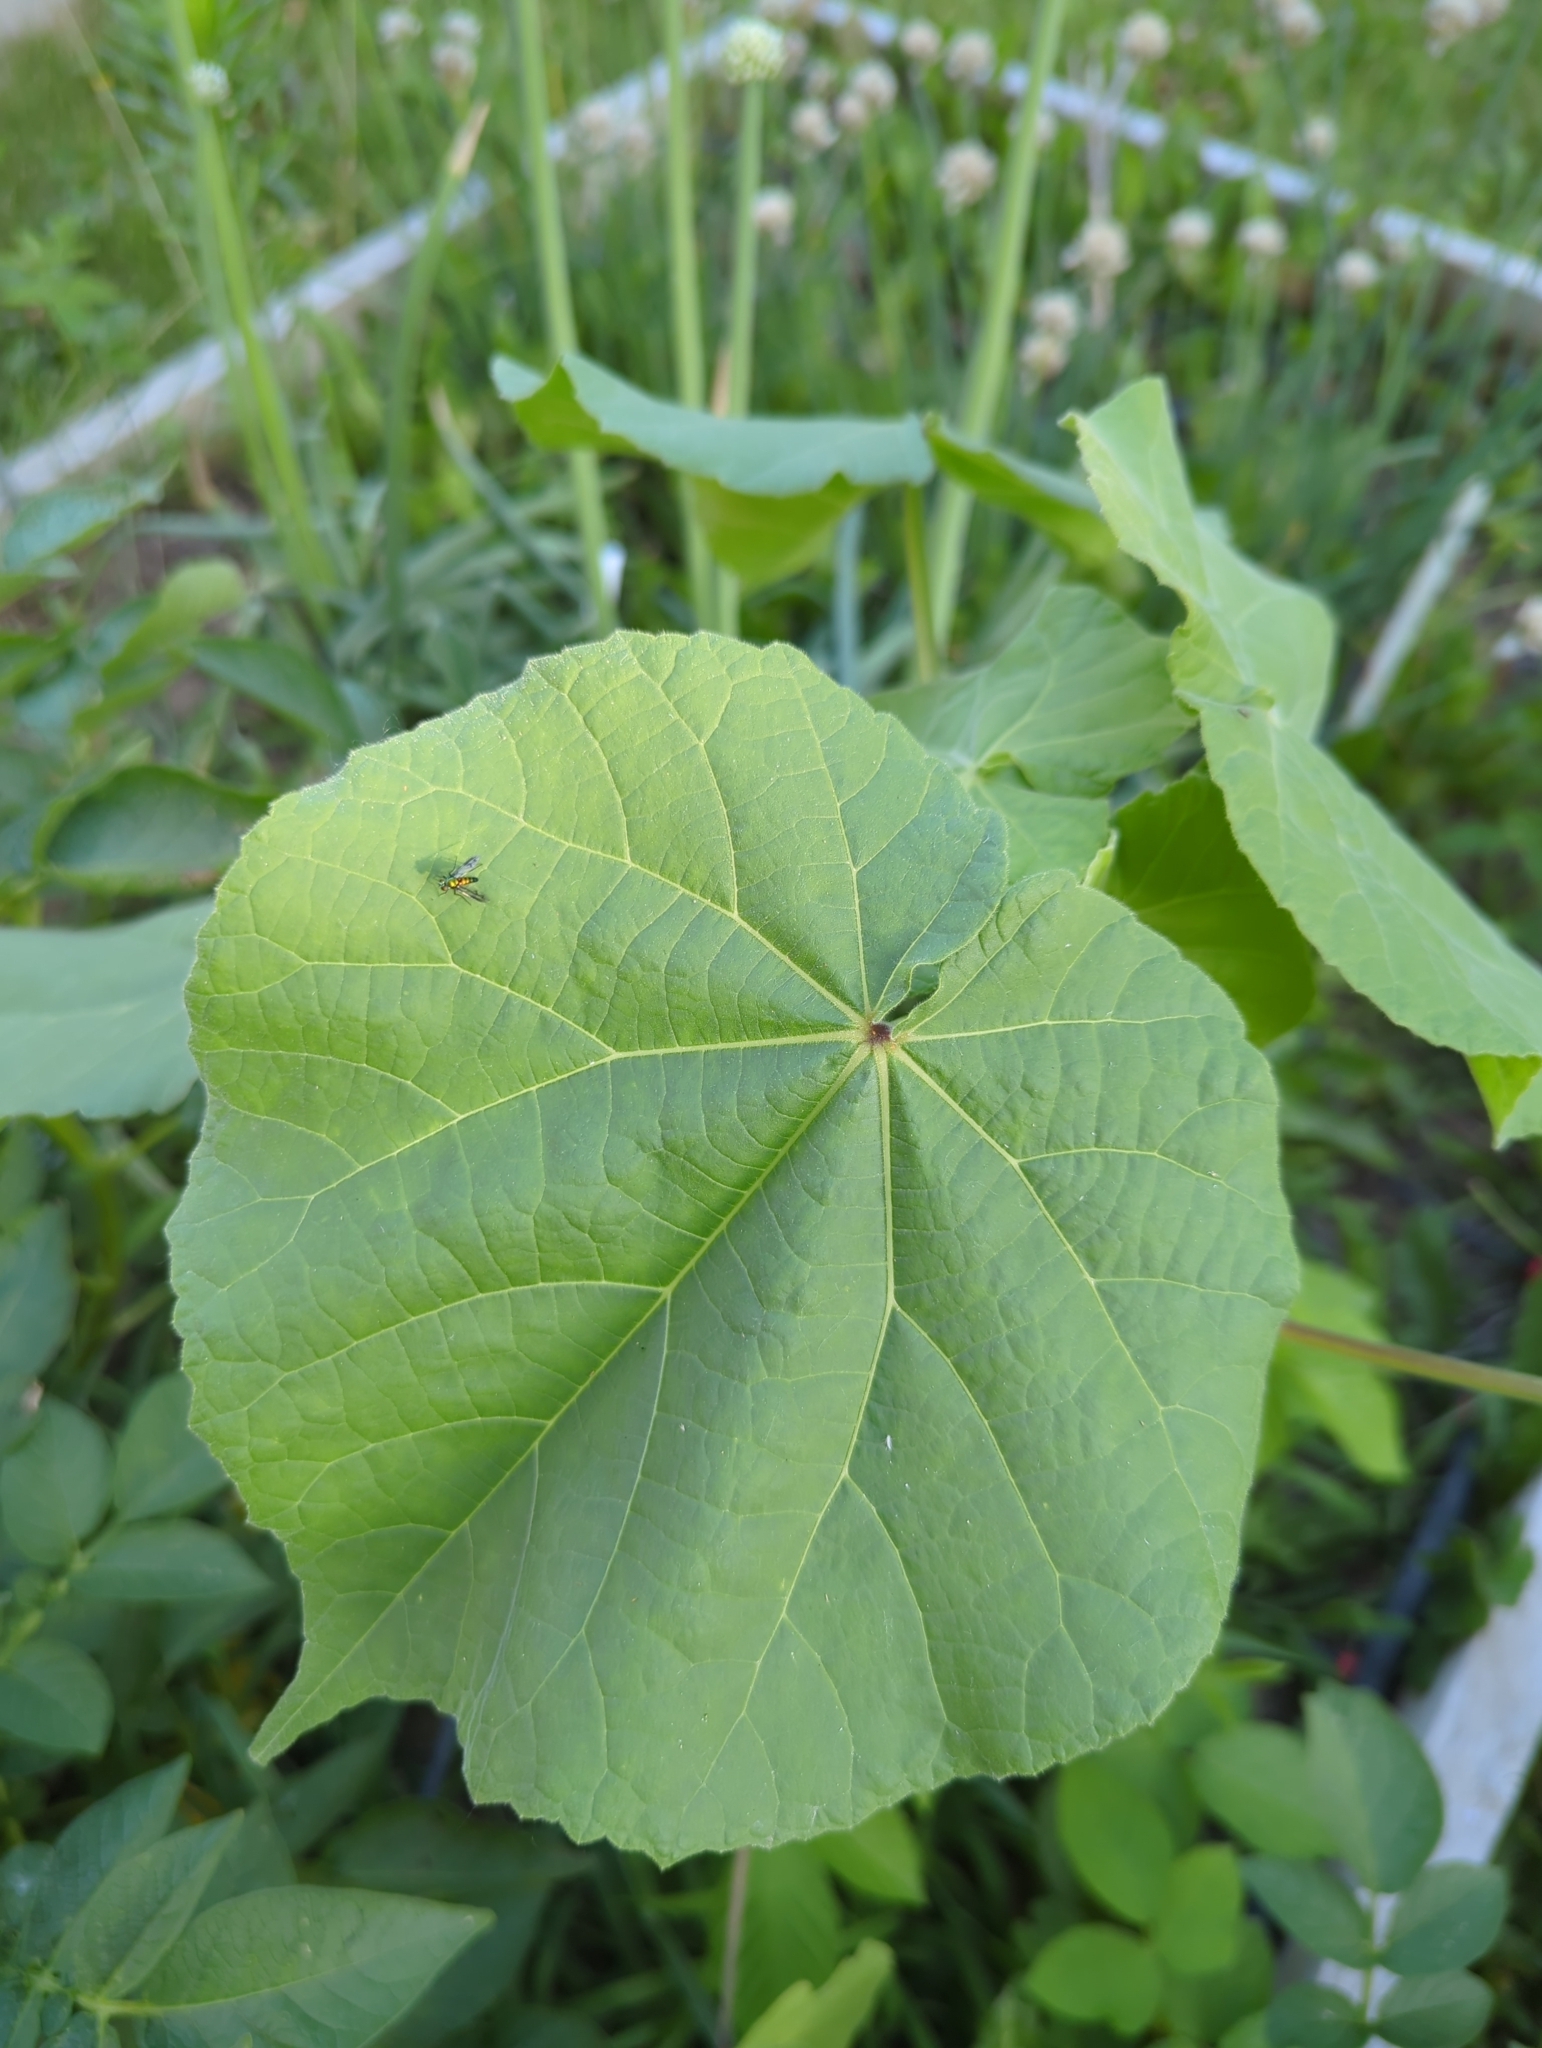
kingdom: Plantae
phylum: Tracheophyta
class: Magnoliopsida
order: Malvales
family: Malvaceae
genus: Abutilon
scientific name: Abutilon theophrasti
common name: Velvetleaf
